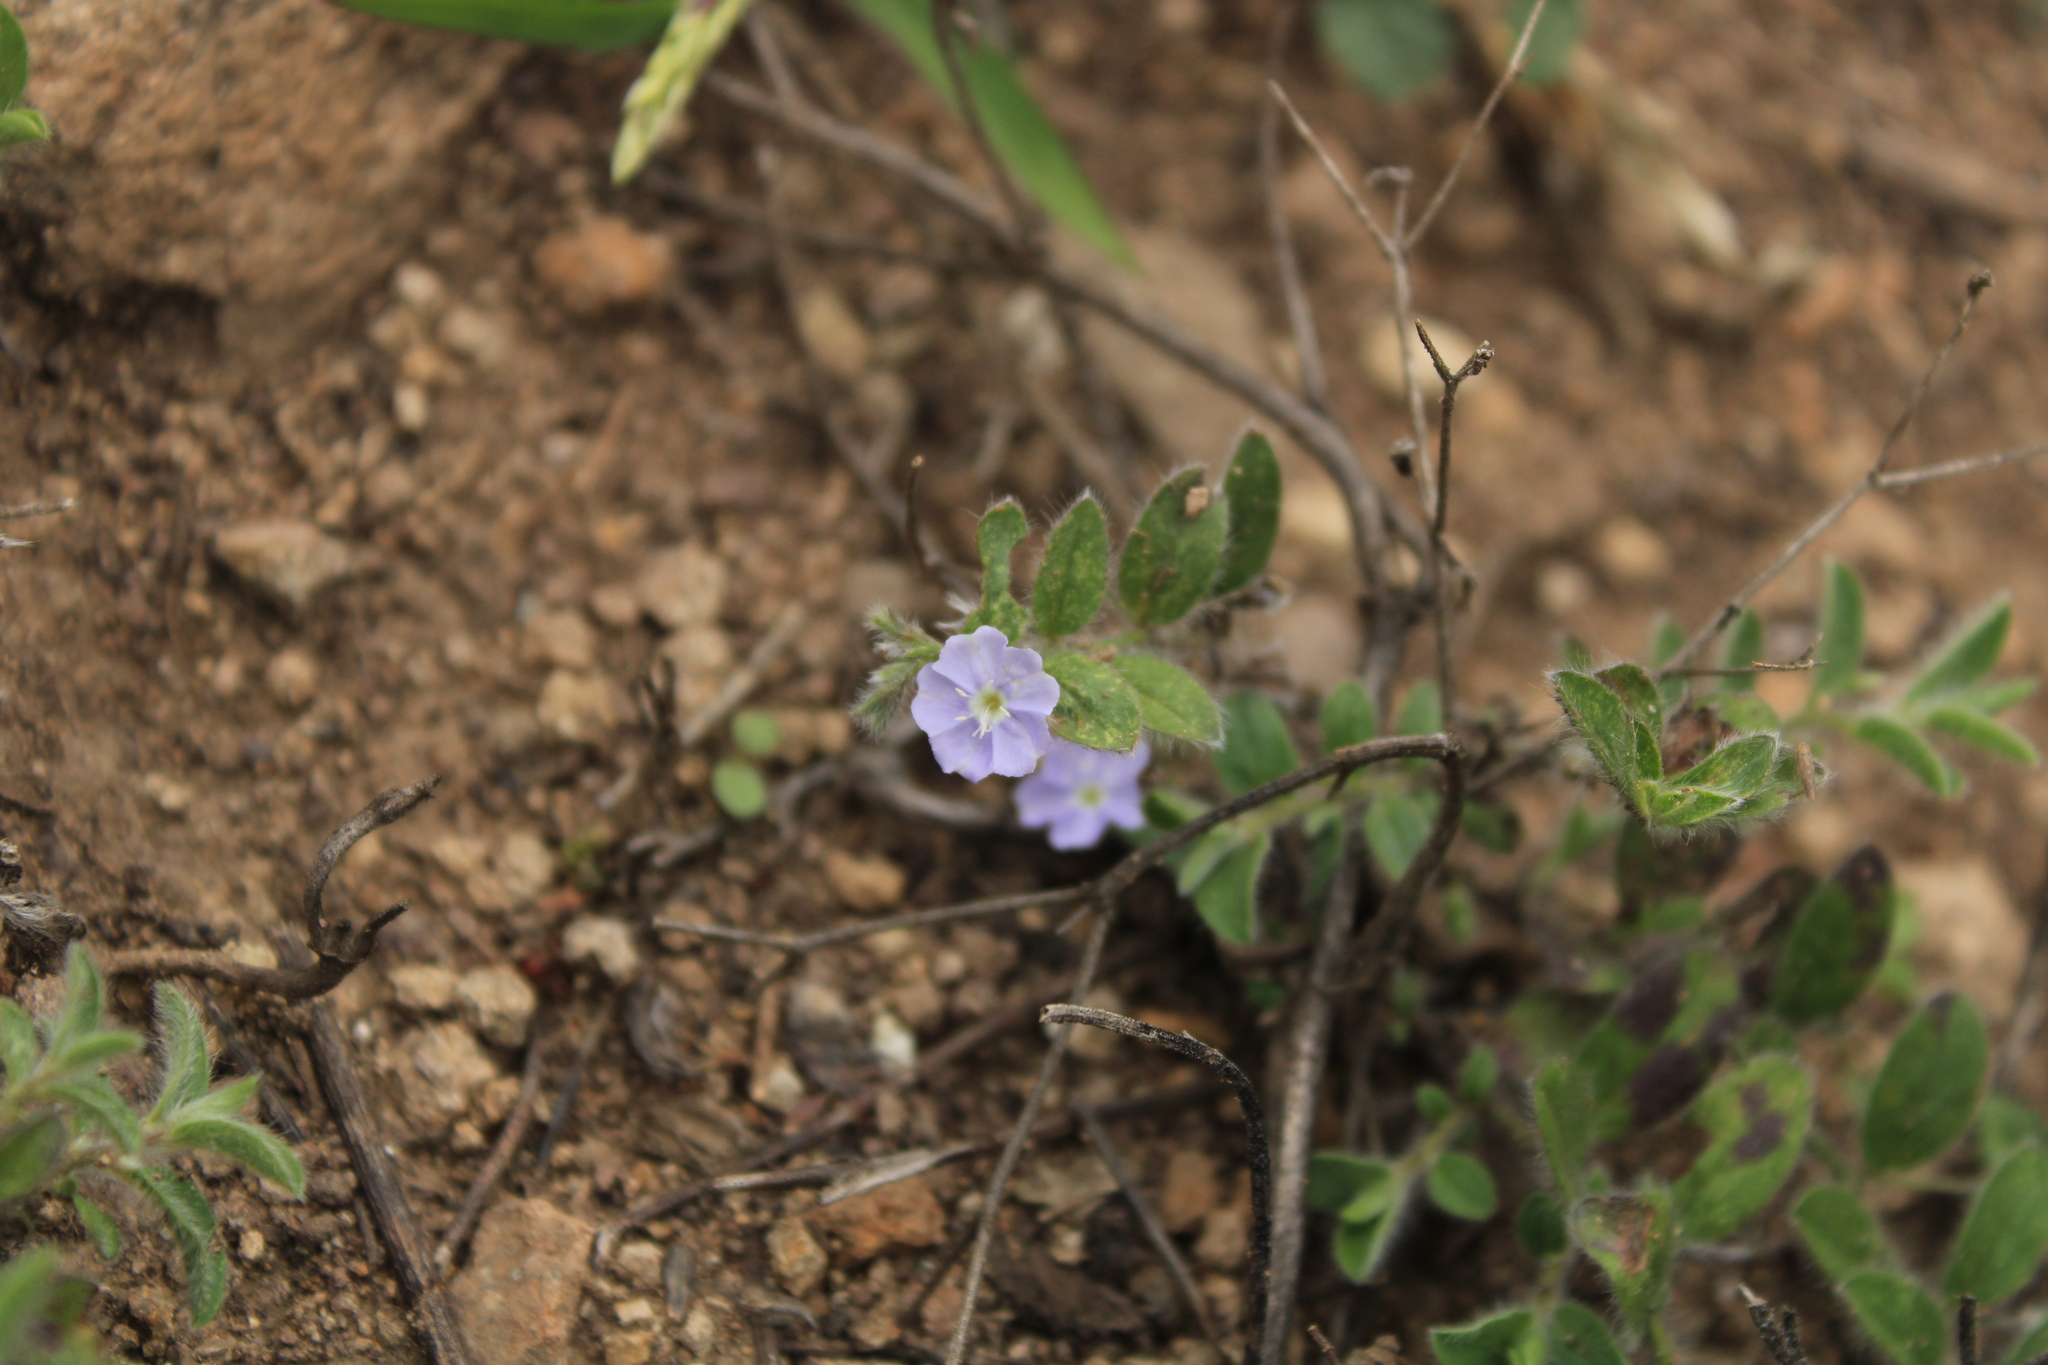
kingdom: Plantae
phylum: Tracheophyta
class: Magnoliopsida
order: Solanales
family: Convolvulaceae
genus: Evolvulus
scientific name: Evolvulus nuttallianus
